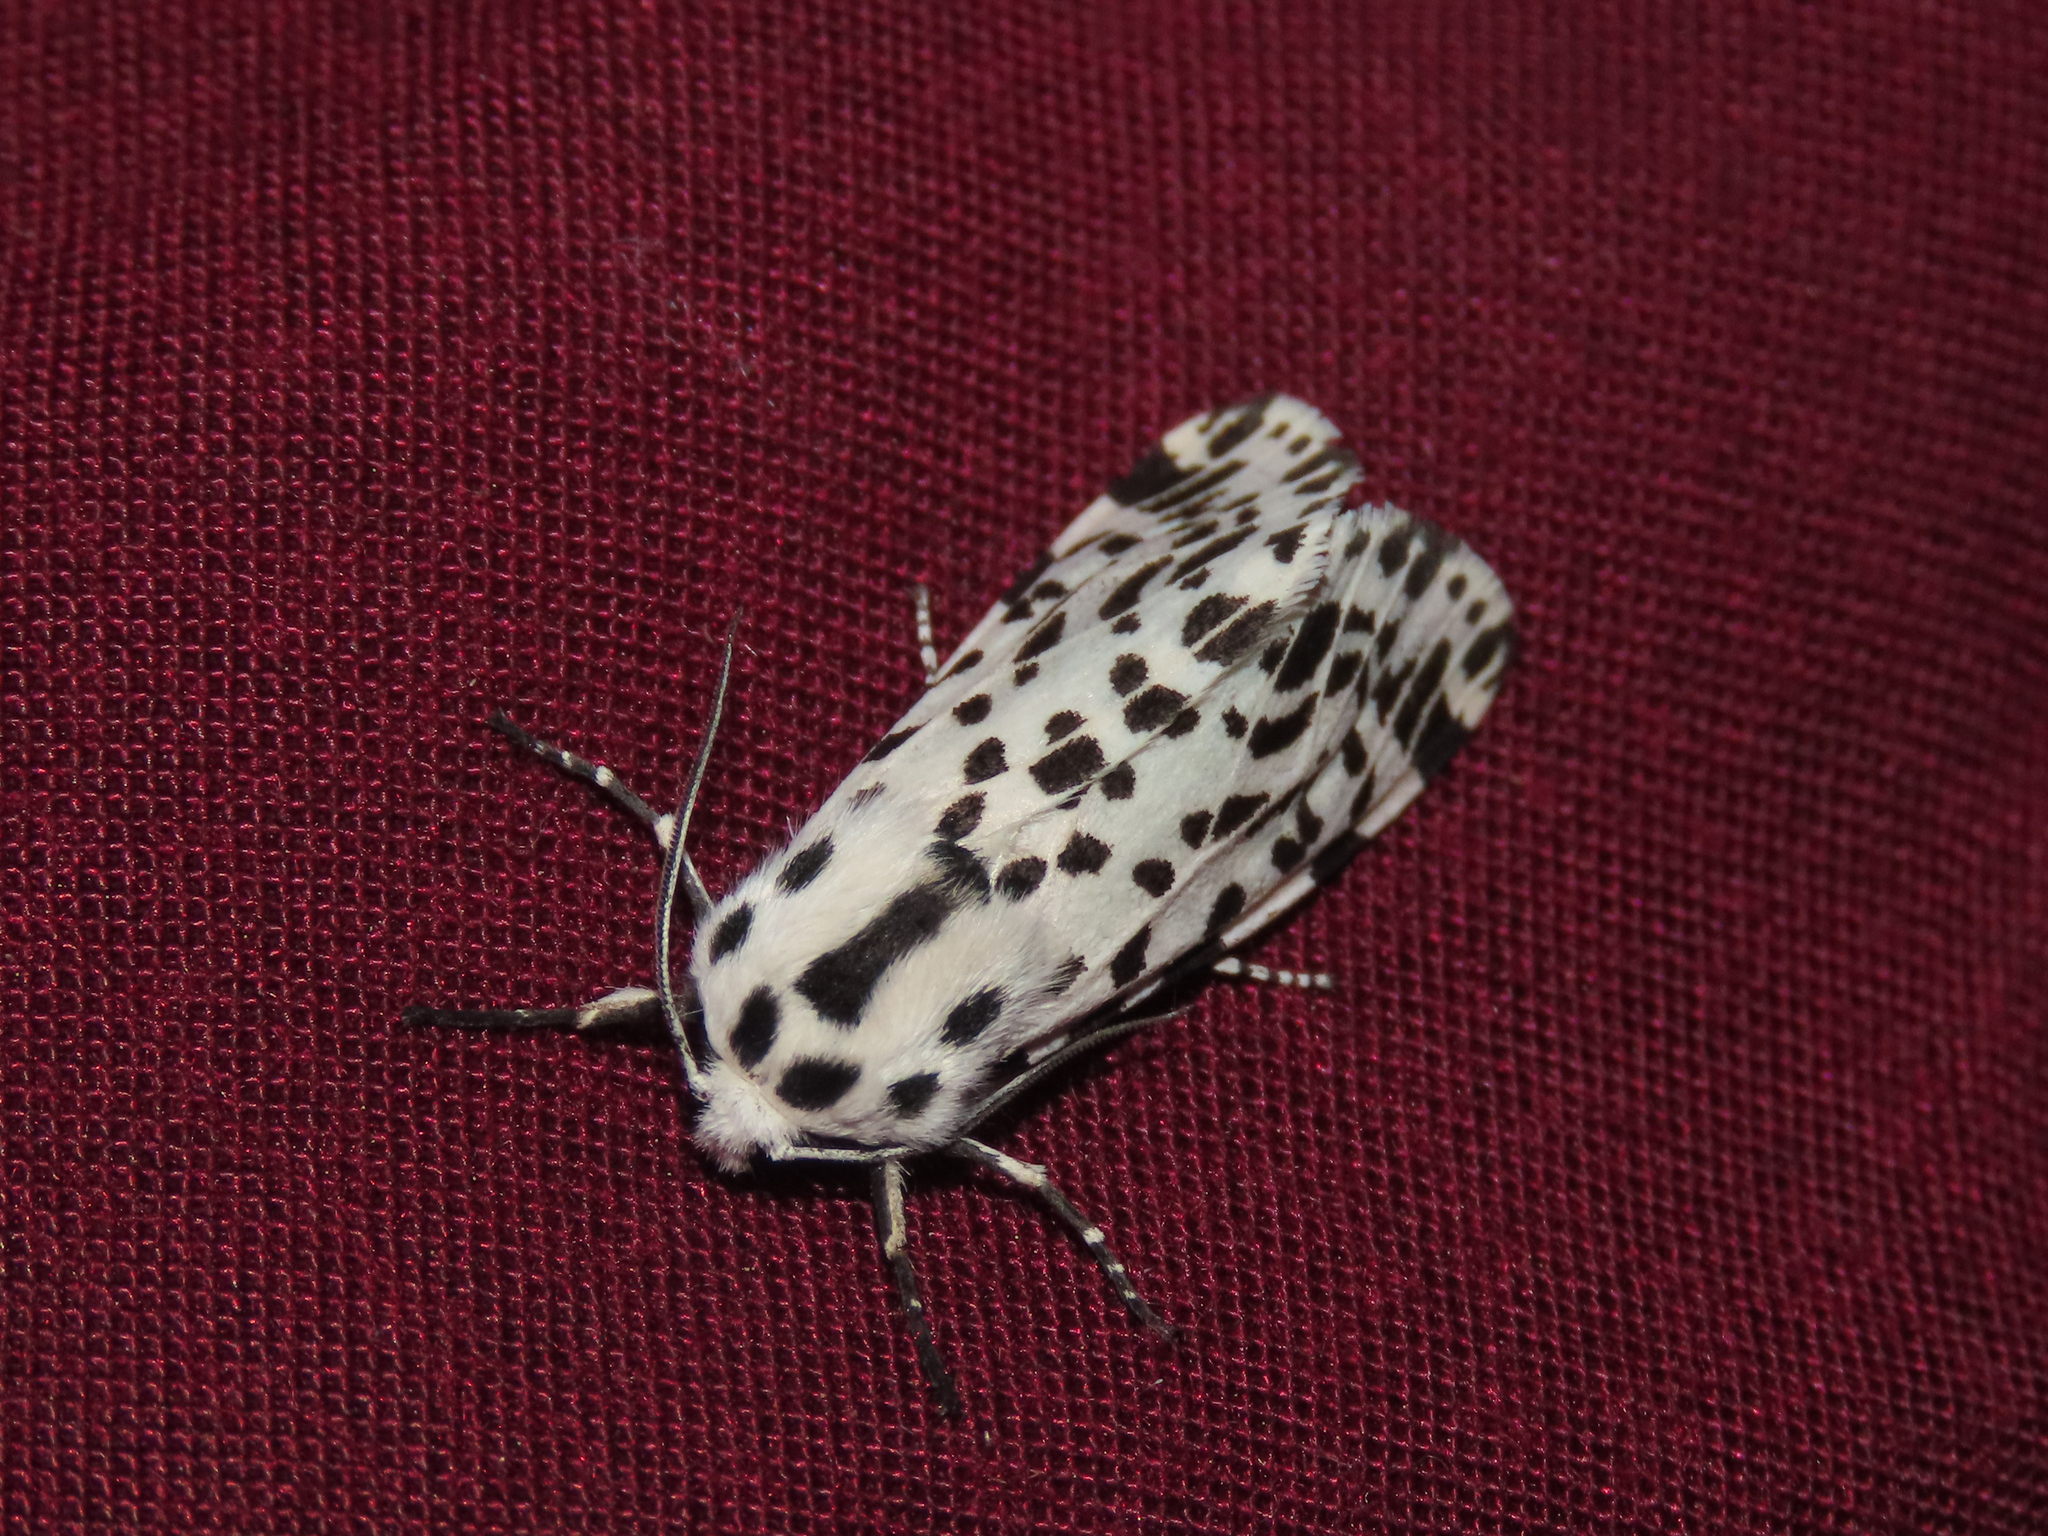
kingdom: Animalia
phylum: Arthropoda
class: Insecta
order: Lepidoptera
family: Erebidae
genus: Hypercompe
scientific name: Hypercompe permaculata
